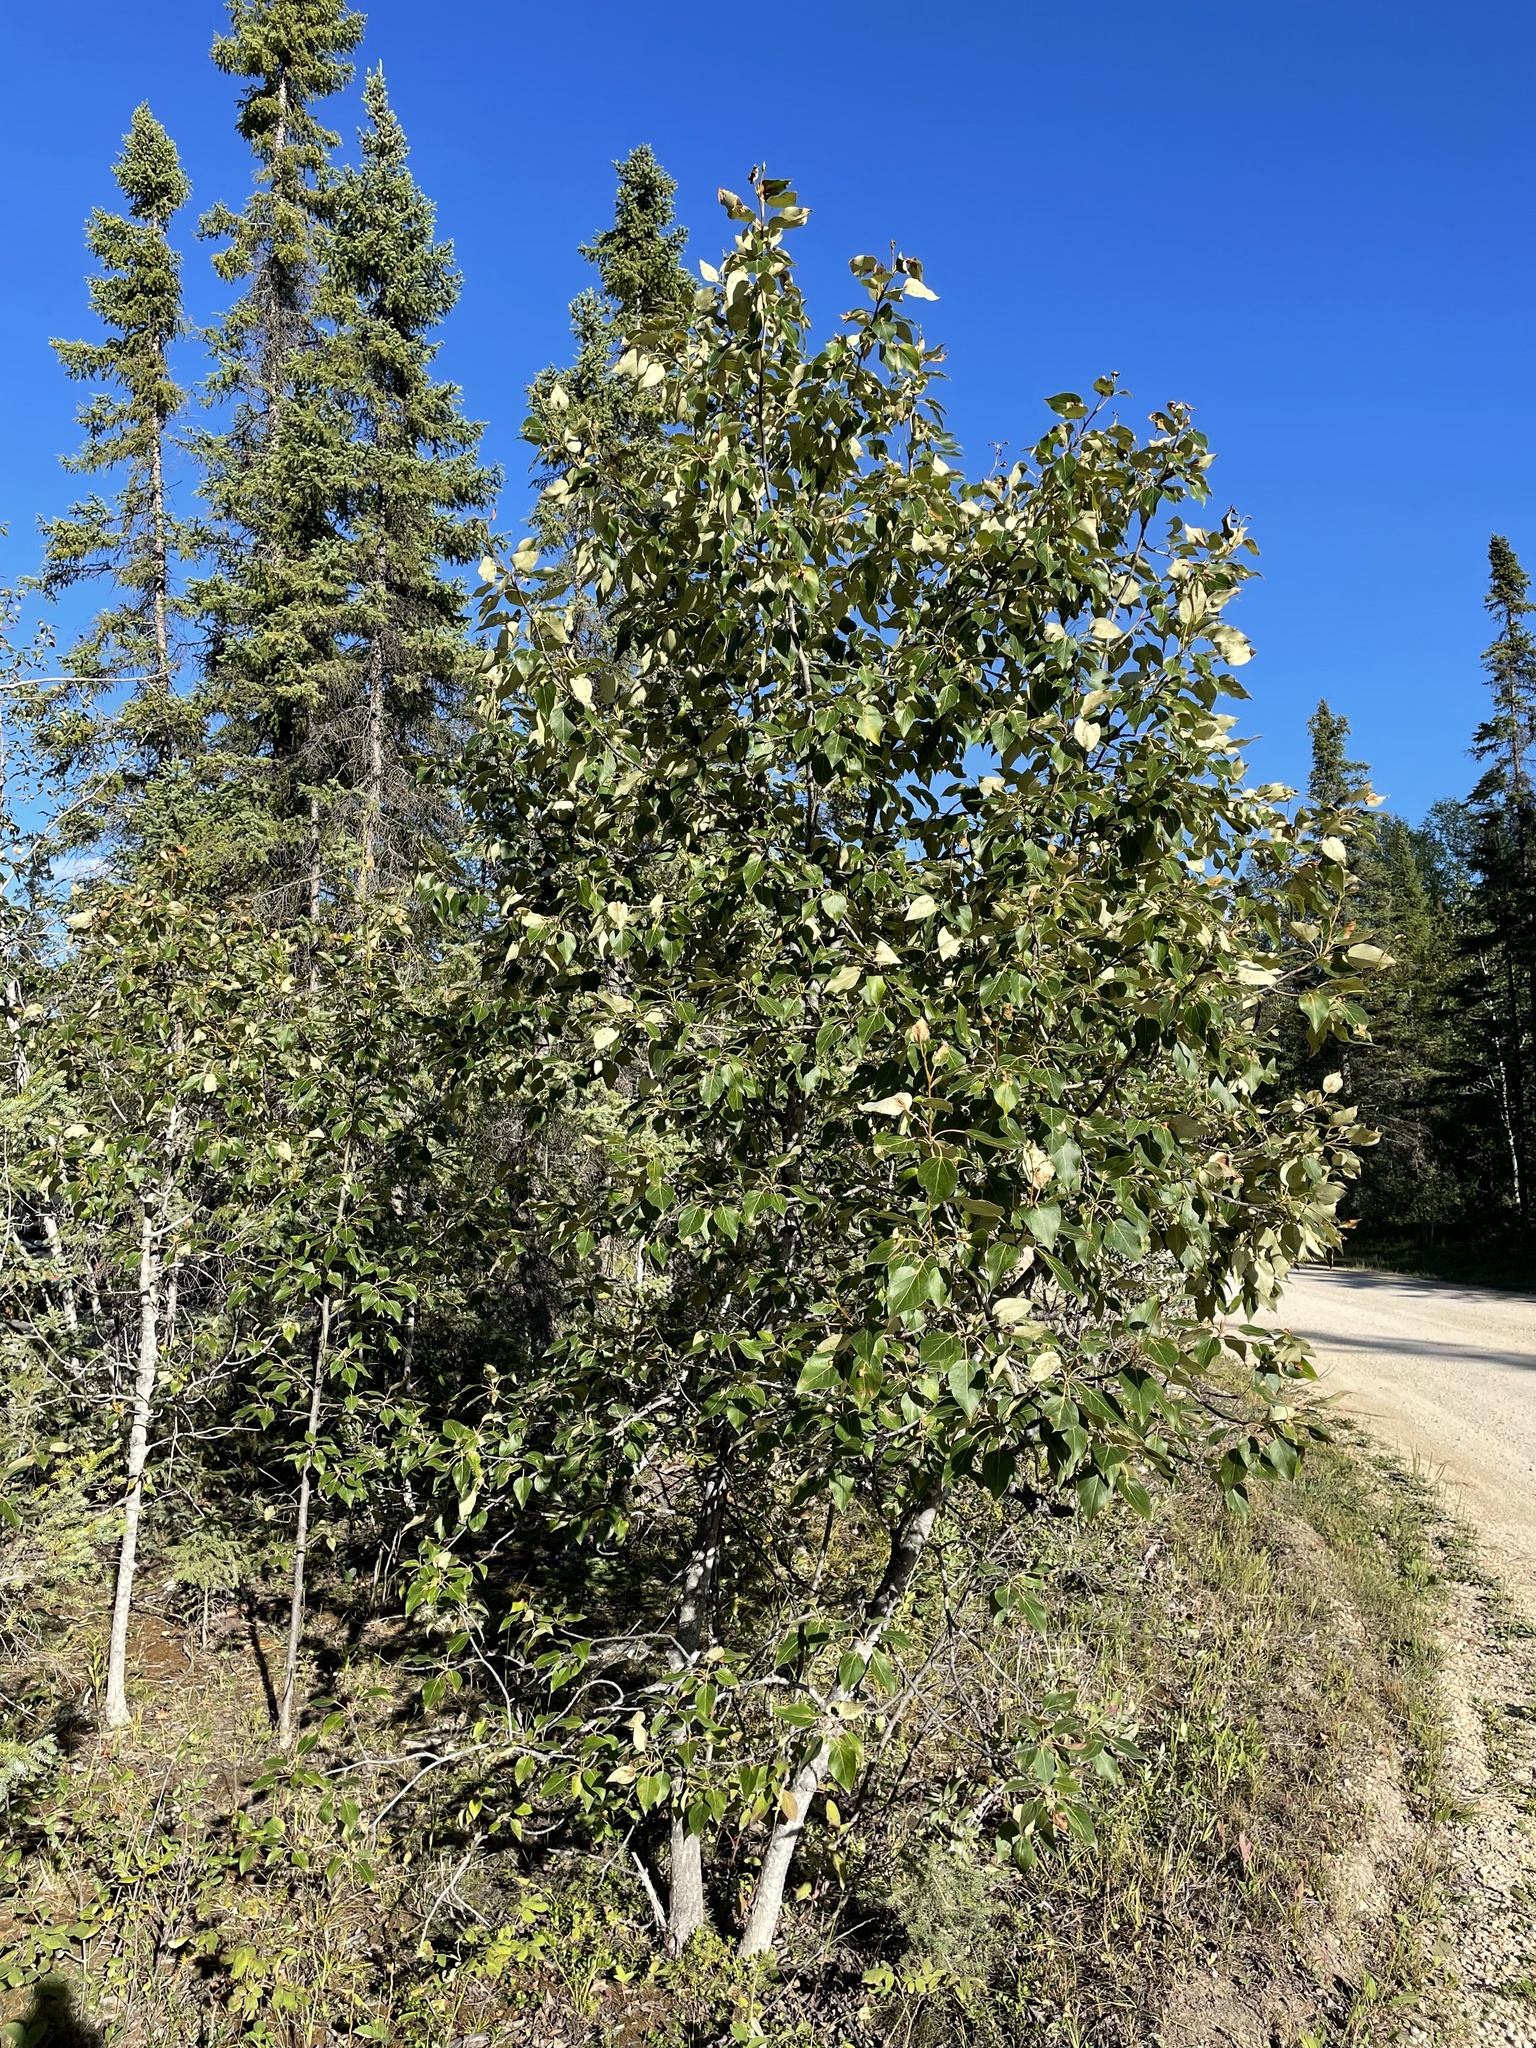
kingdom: Plantae
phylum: Tracheophyta
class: Magnoliopsida
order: Malpighiales
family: Salicaceae
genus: Populus
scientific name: Populus balsamifera
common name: Balsam poplar
